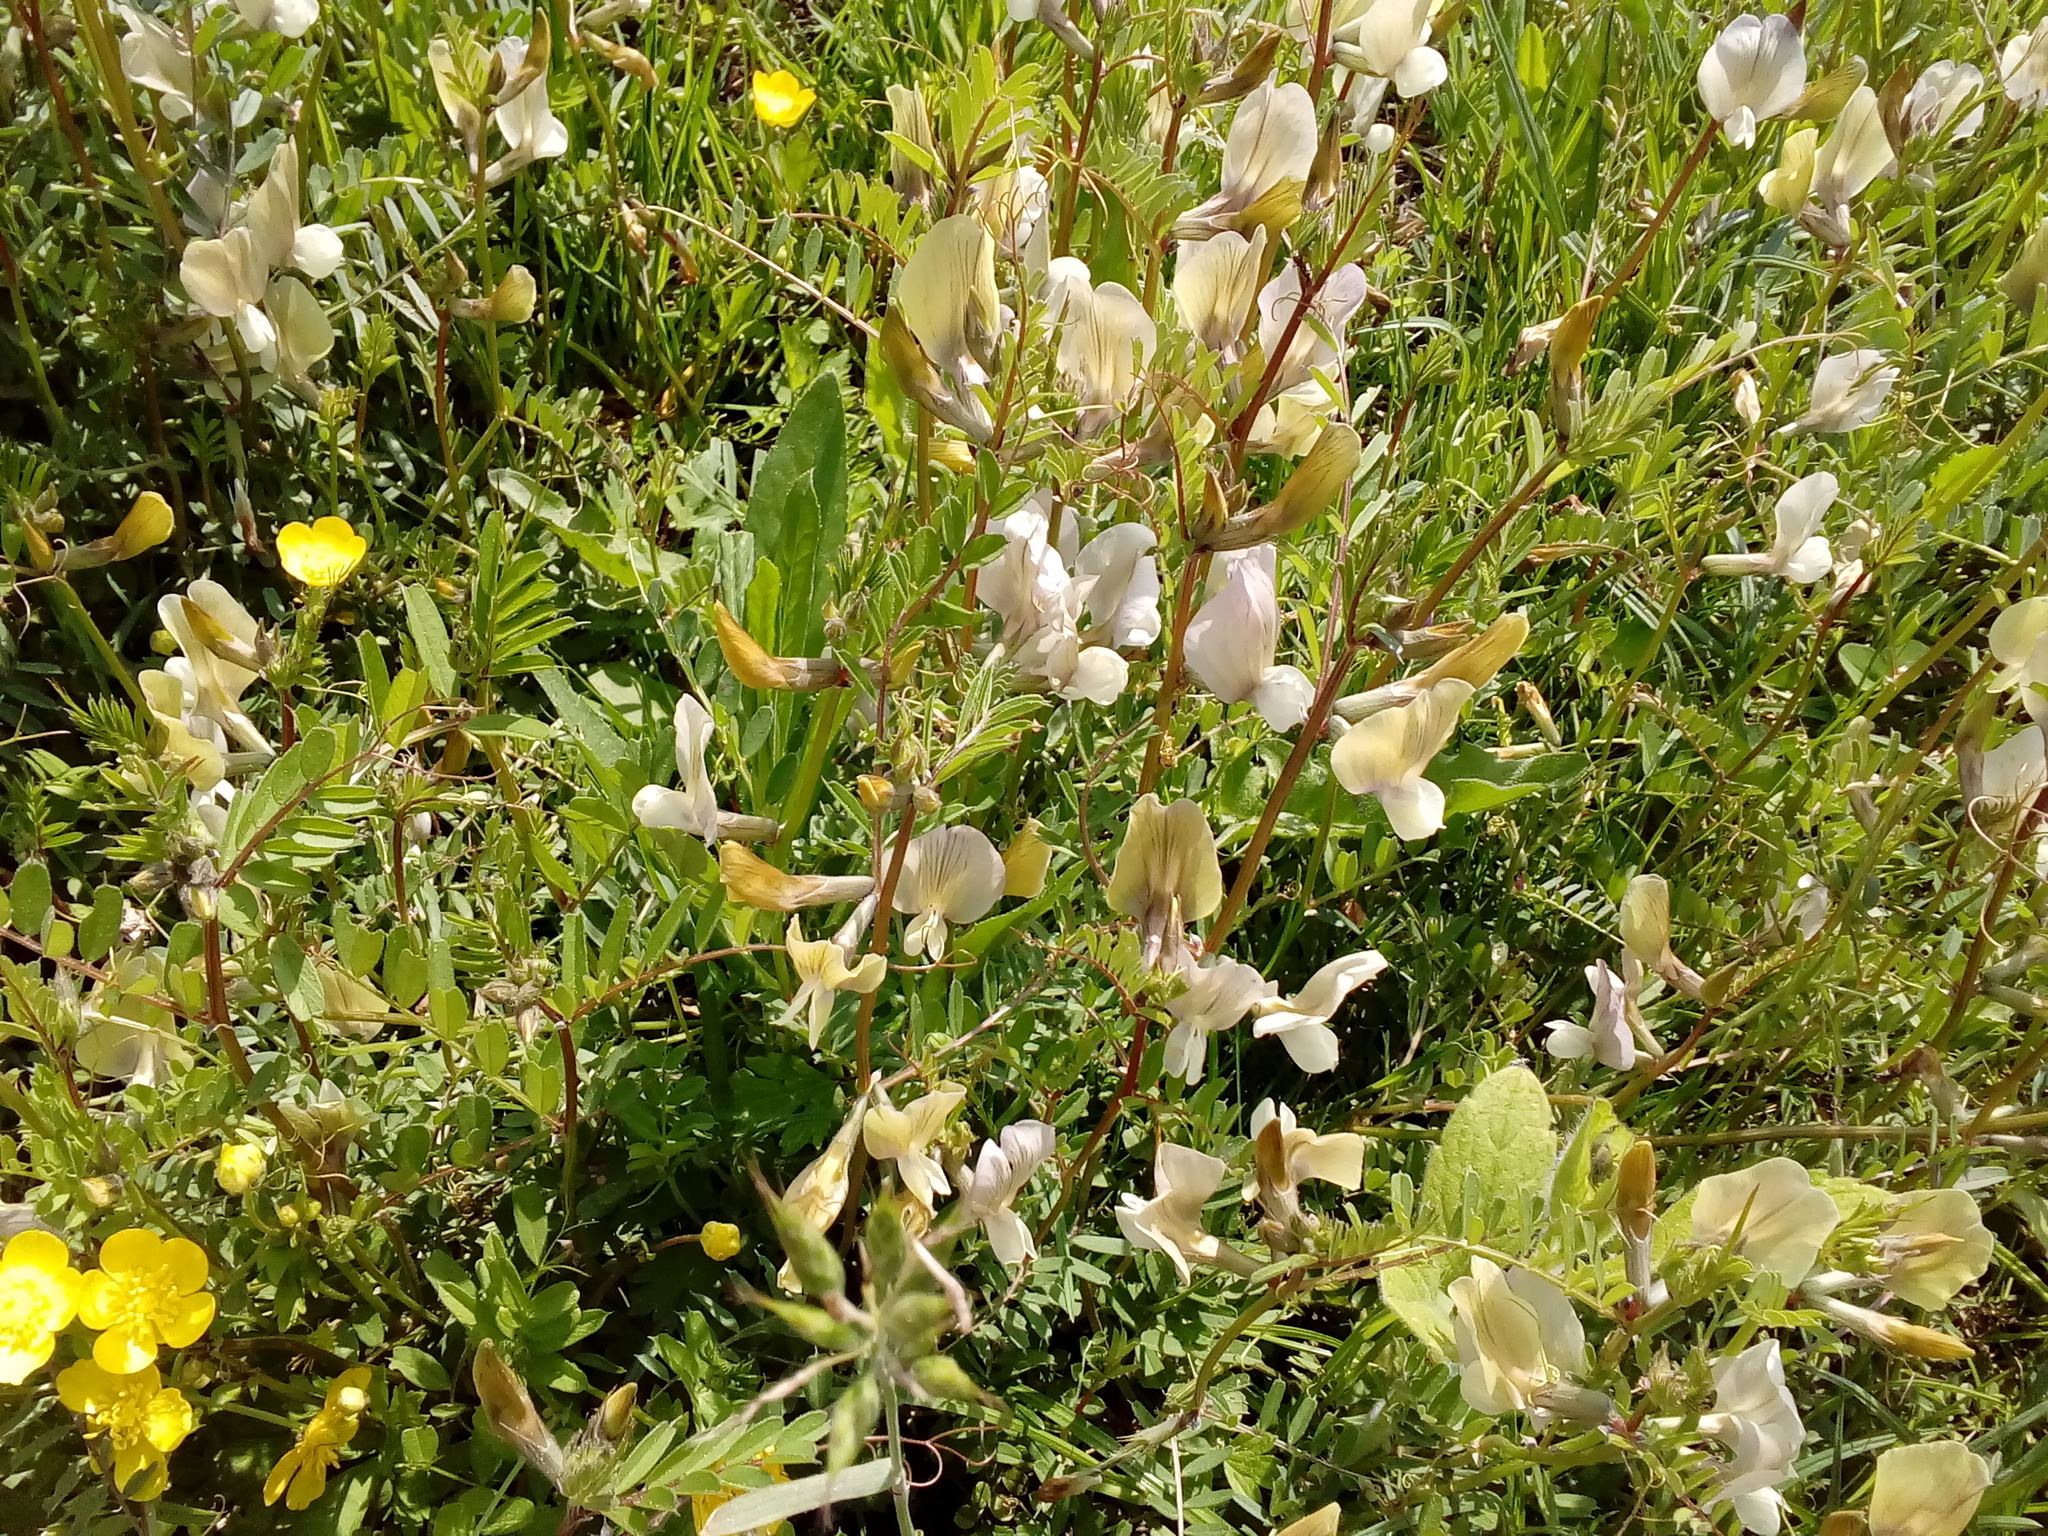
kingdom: Plantae
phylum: Tracheophyta
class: Magnoliopsida
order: Fabales
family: Fabaceae
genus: Vicia
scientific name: Vicia grandiflora
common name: Large yellow vetch
